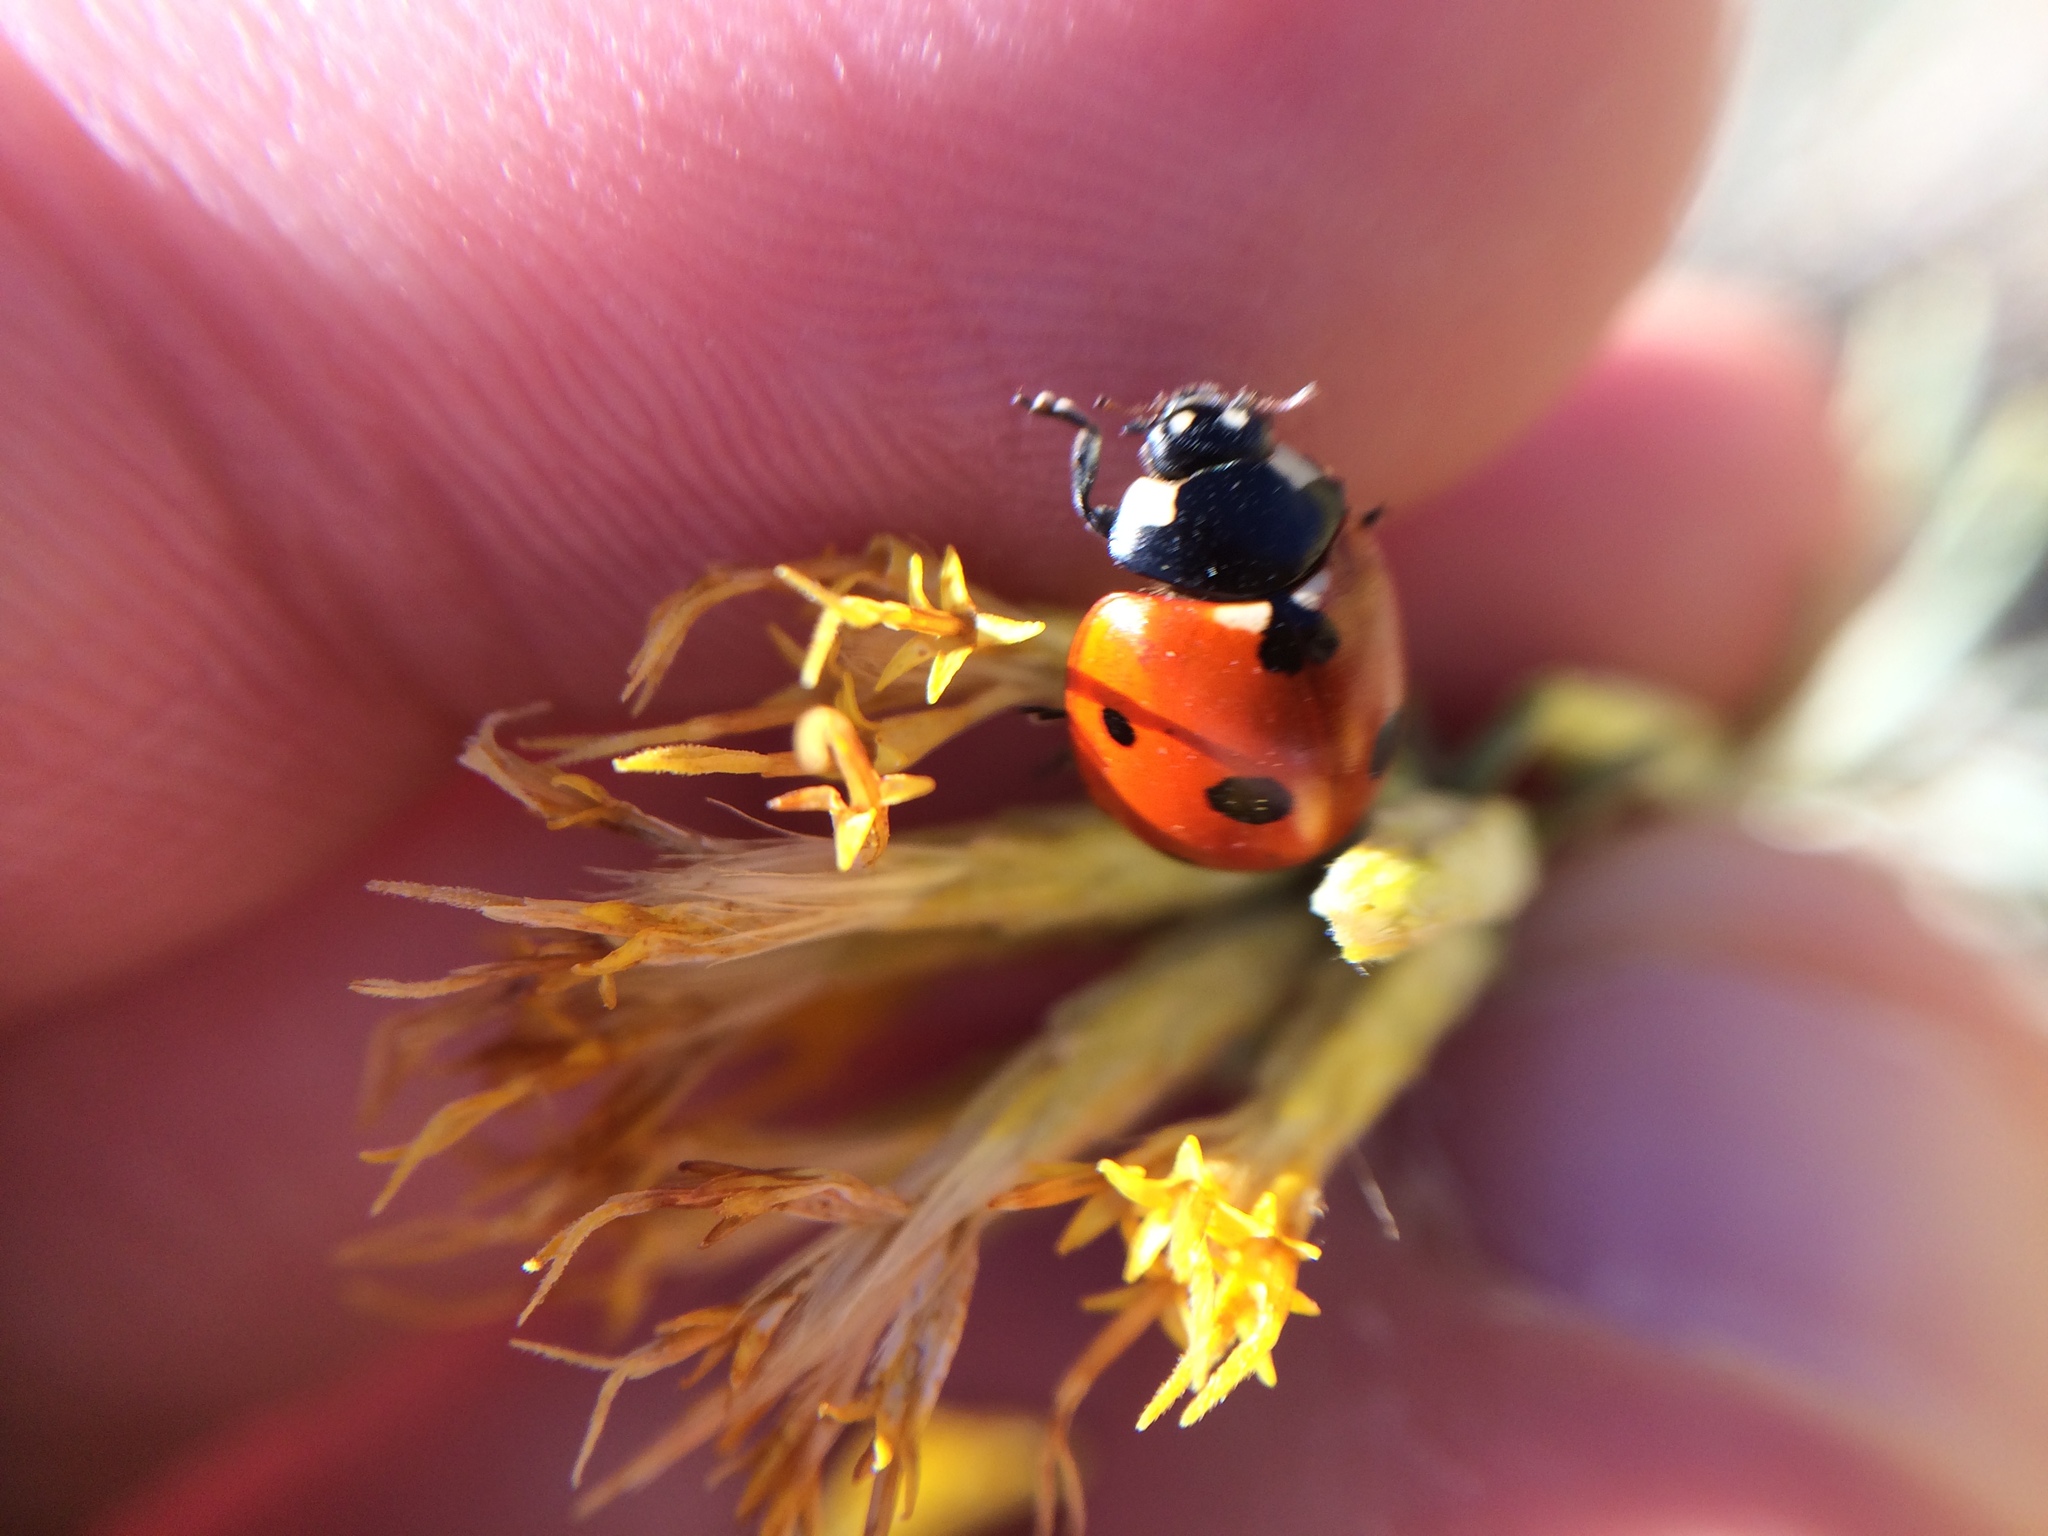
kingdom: Animalia
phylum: Arthropoda
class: Insecta
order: Coleoptera
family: Coccinellidae
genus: Coccinella
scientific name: Coccinella septempunctata
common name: Sevenspotted lady beetle
